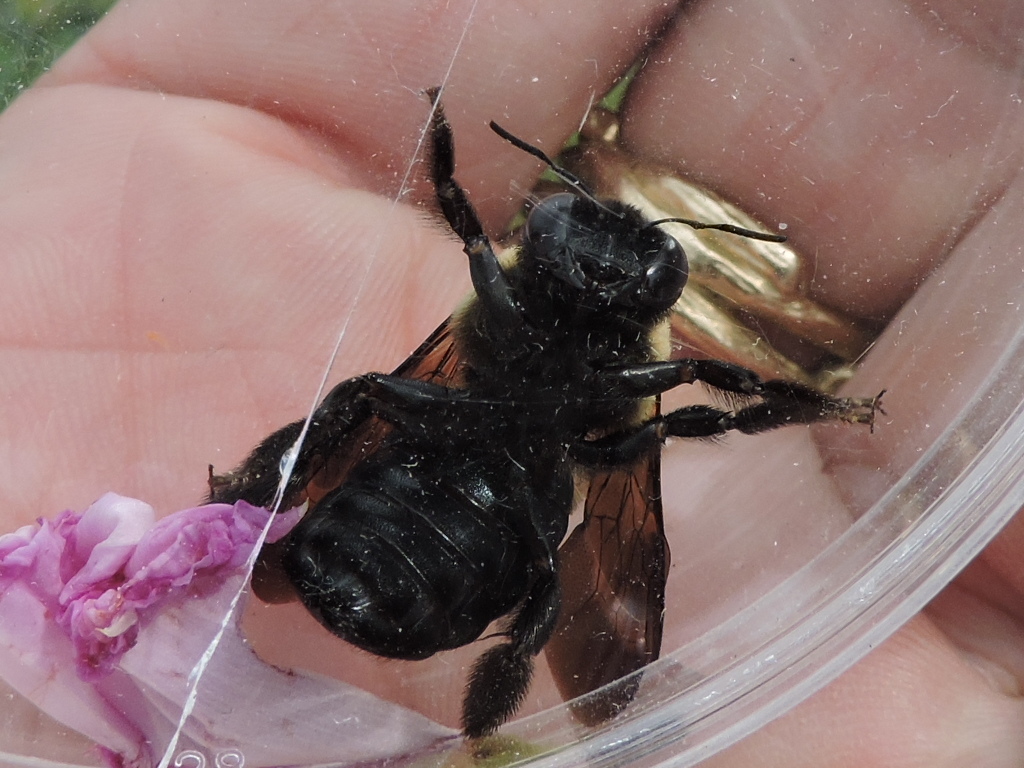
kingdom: Animalia
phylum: Arthropoda
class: Insecta
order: Hymenoptera
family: Apidae
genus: Xylocopa
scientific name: Xylocopa virginica
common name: Carpenter bee
